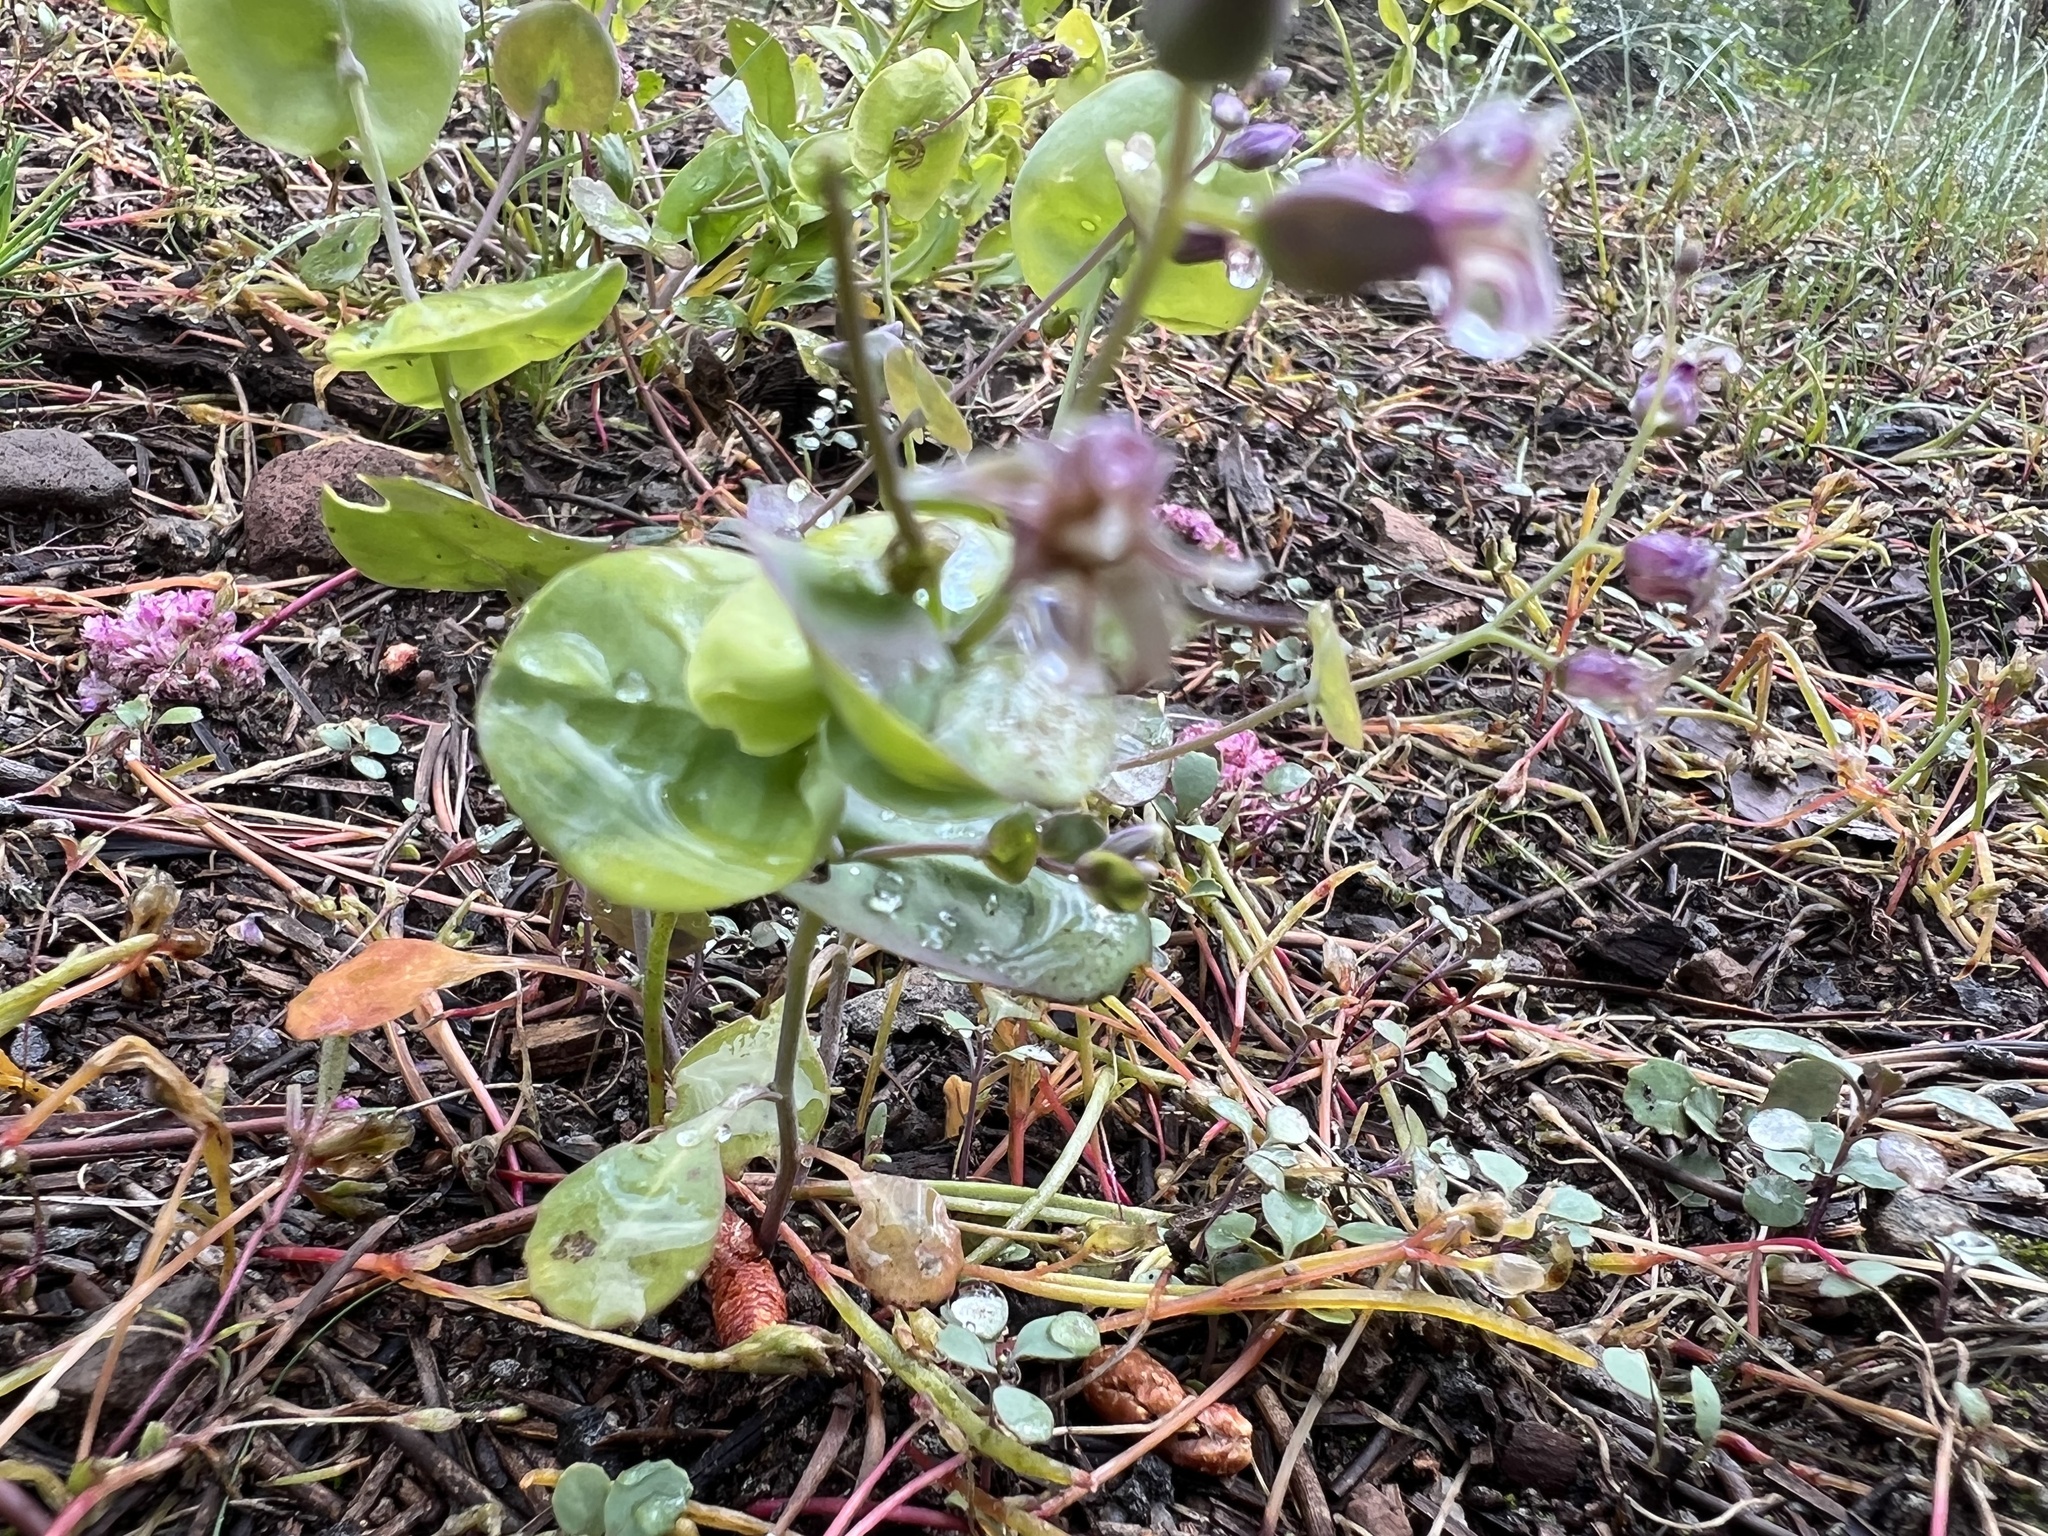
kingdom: Plantae
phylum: Tracheophyta
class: Magnoliopsida
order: Brassicales
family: Brassicaceae
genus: Streptanthus
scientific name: Streptanthus tortuosus
